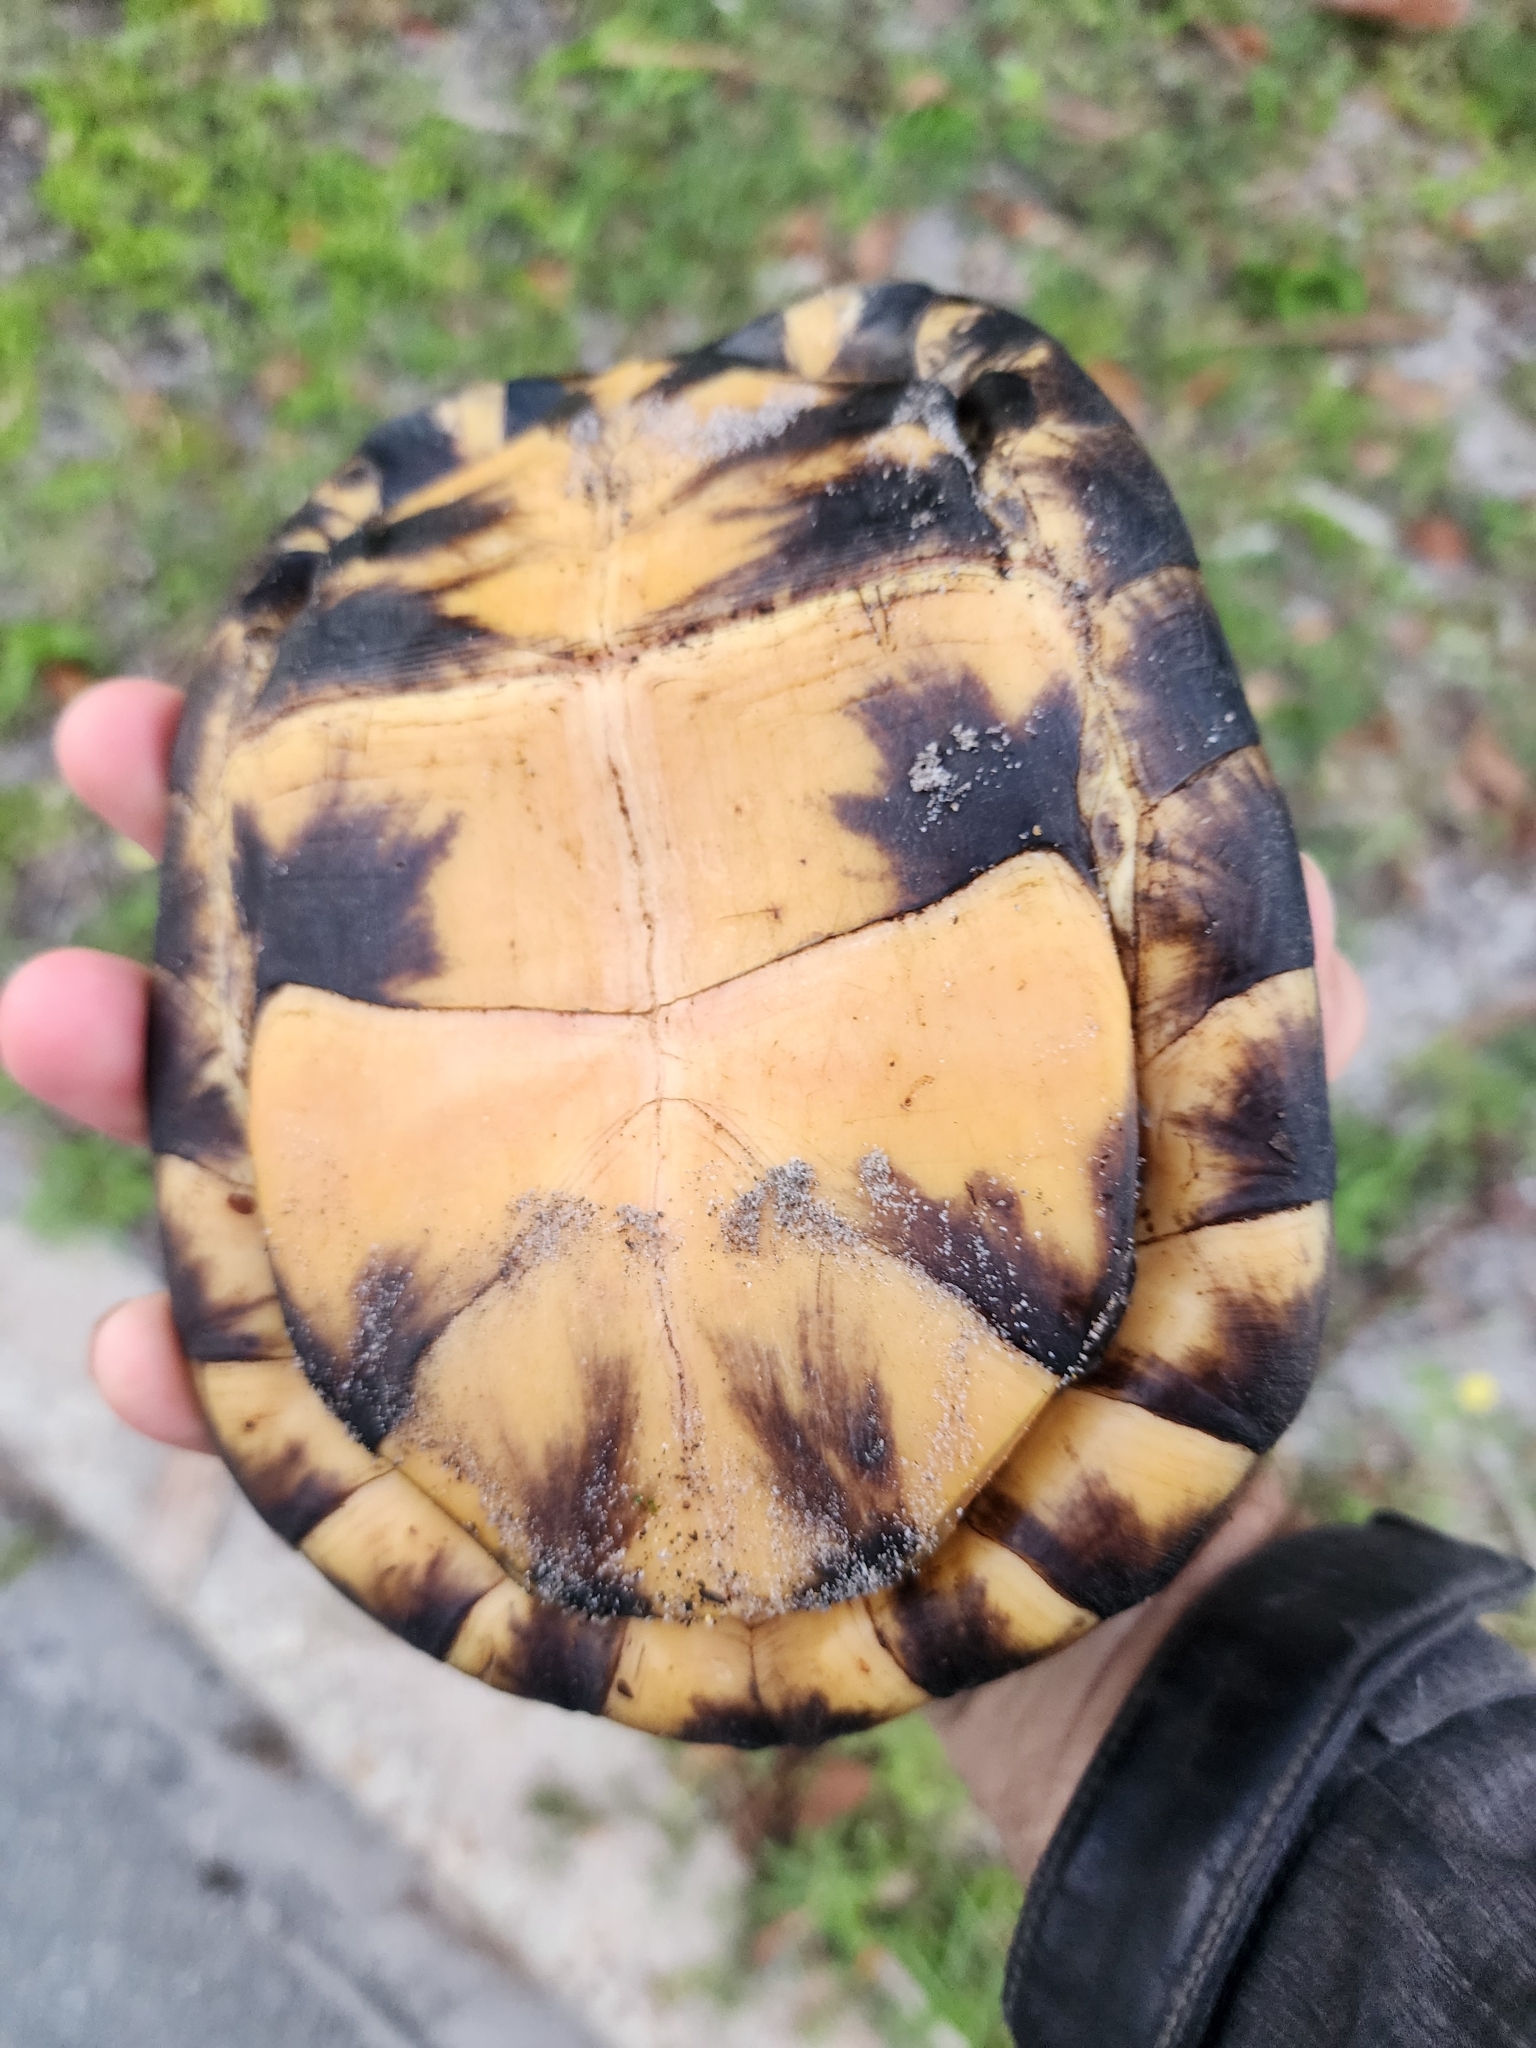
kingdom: Animalia
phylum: Chordata
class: Testudines
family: Emydidae
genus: Terrapene
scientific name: Terrapene carolina
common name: Common box turtle
